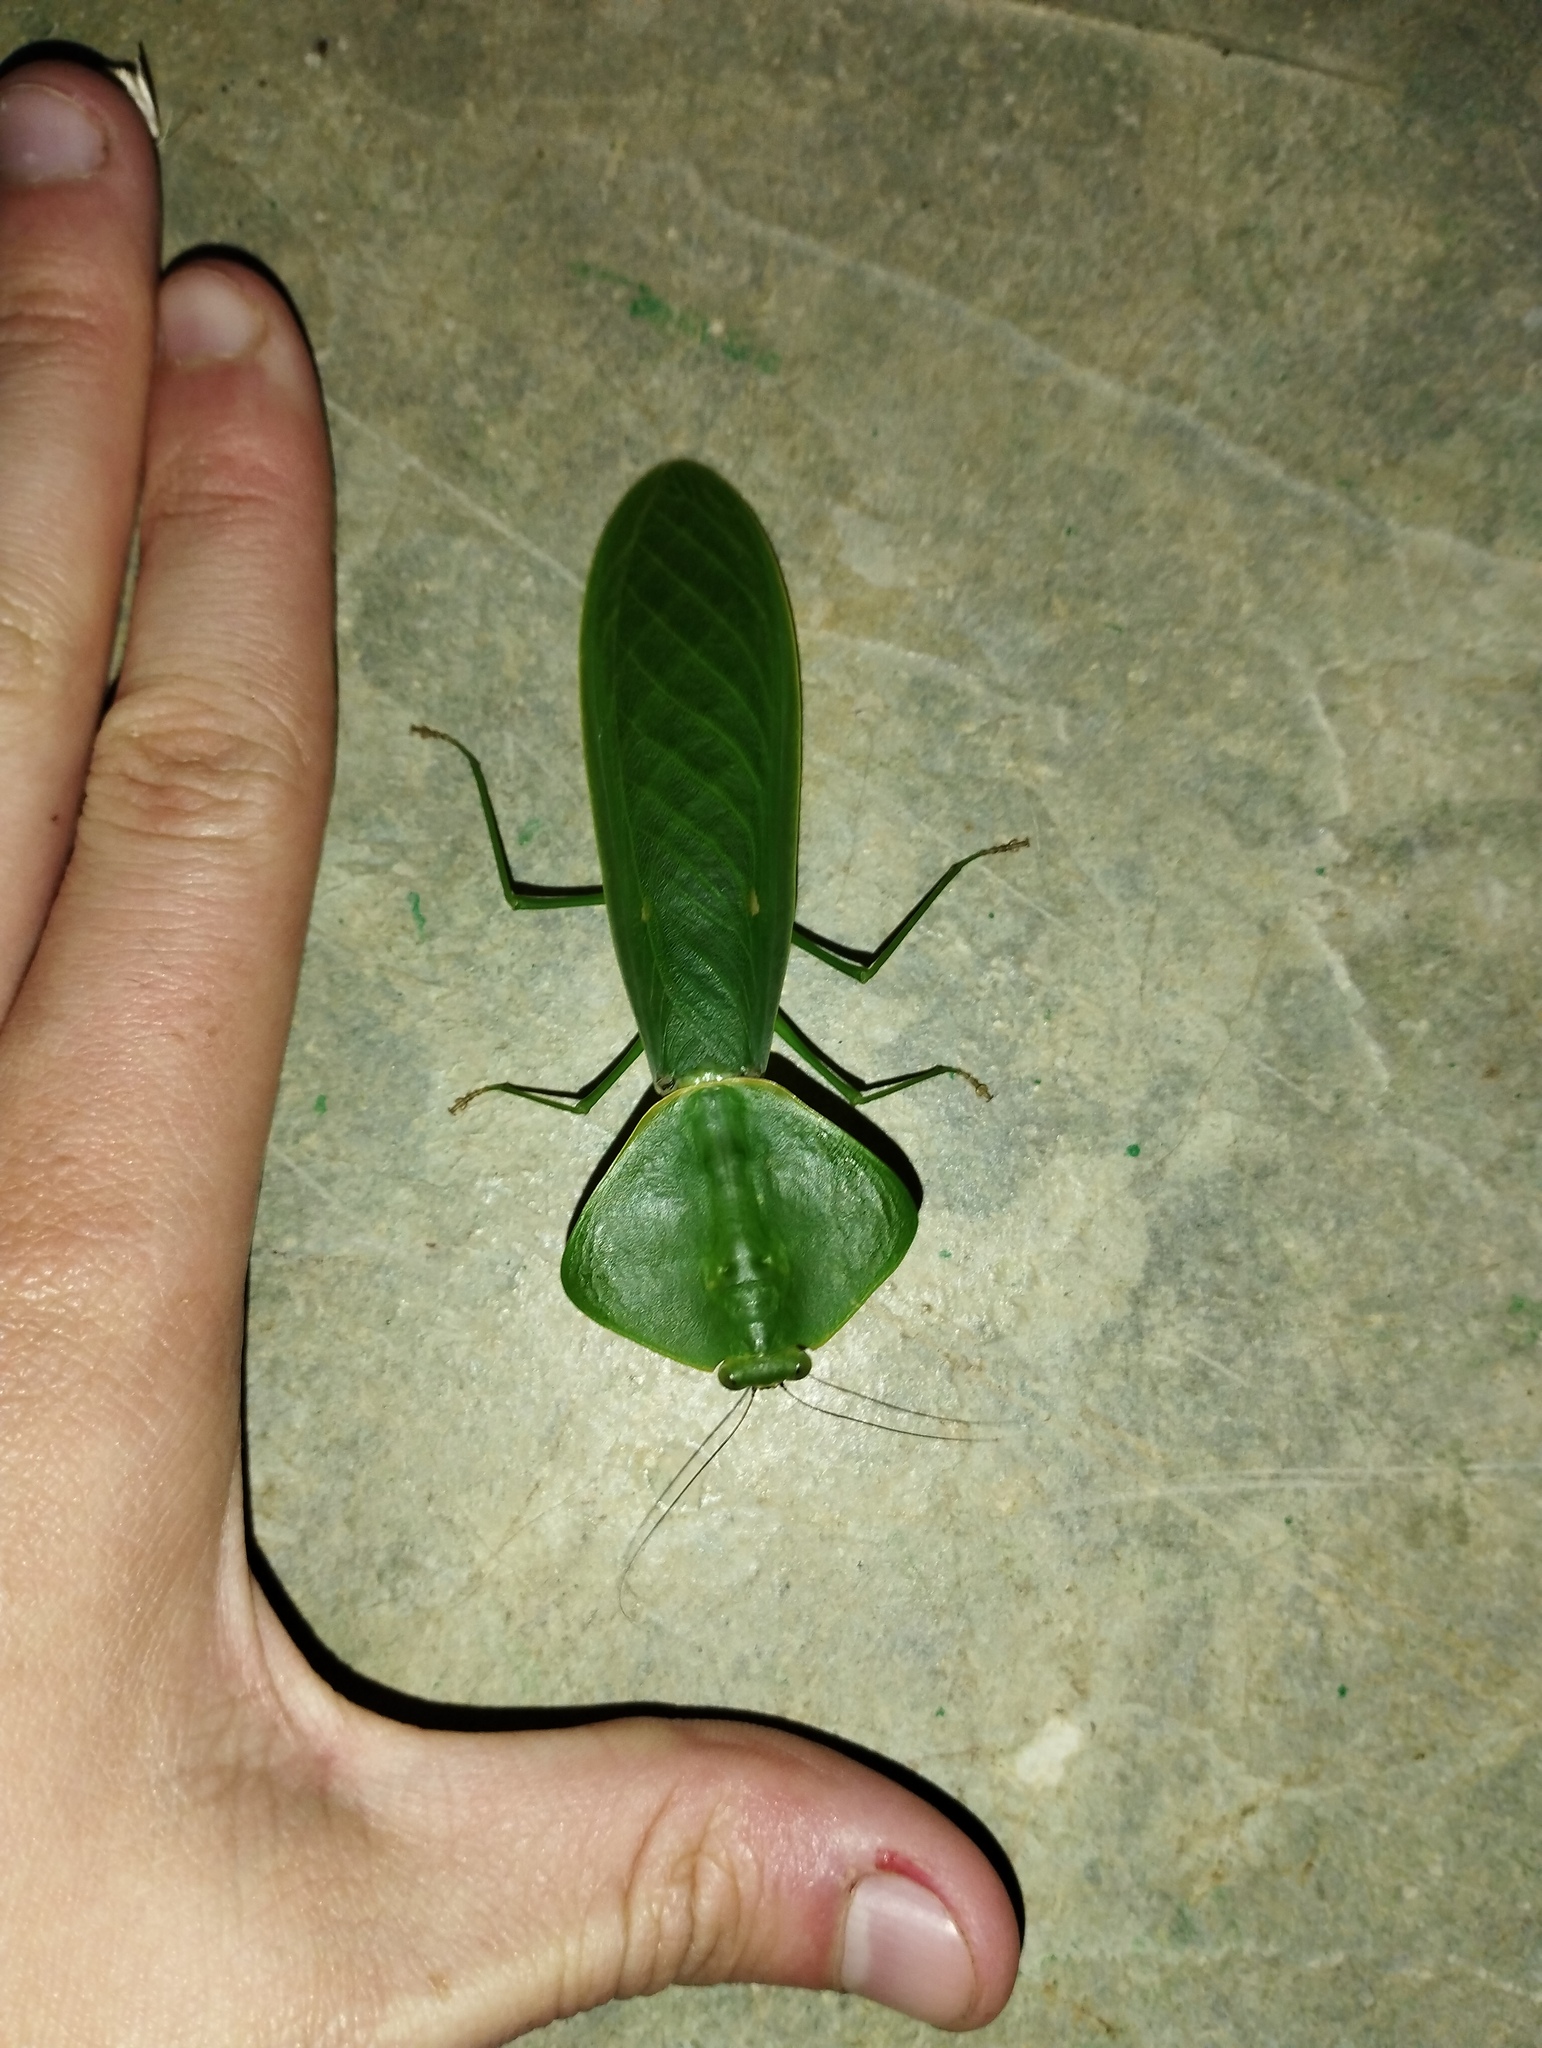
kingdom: Animalia
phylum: Arthropoda
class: Insecta
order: Mantodea
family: Mantidae
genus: Choeradodis
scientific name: Choeradodis rhombicollis
